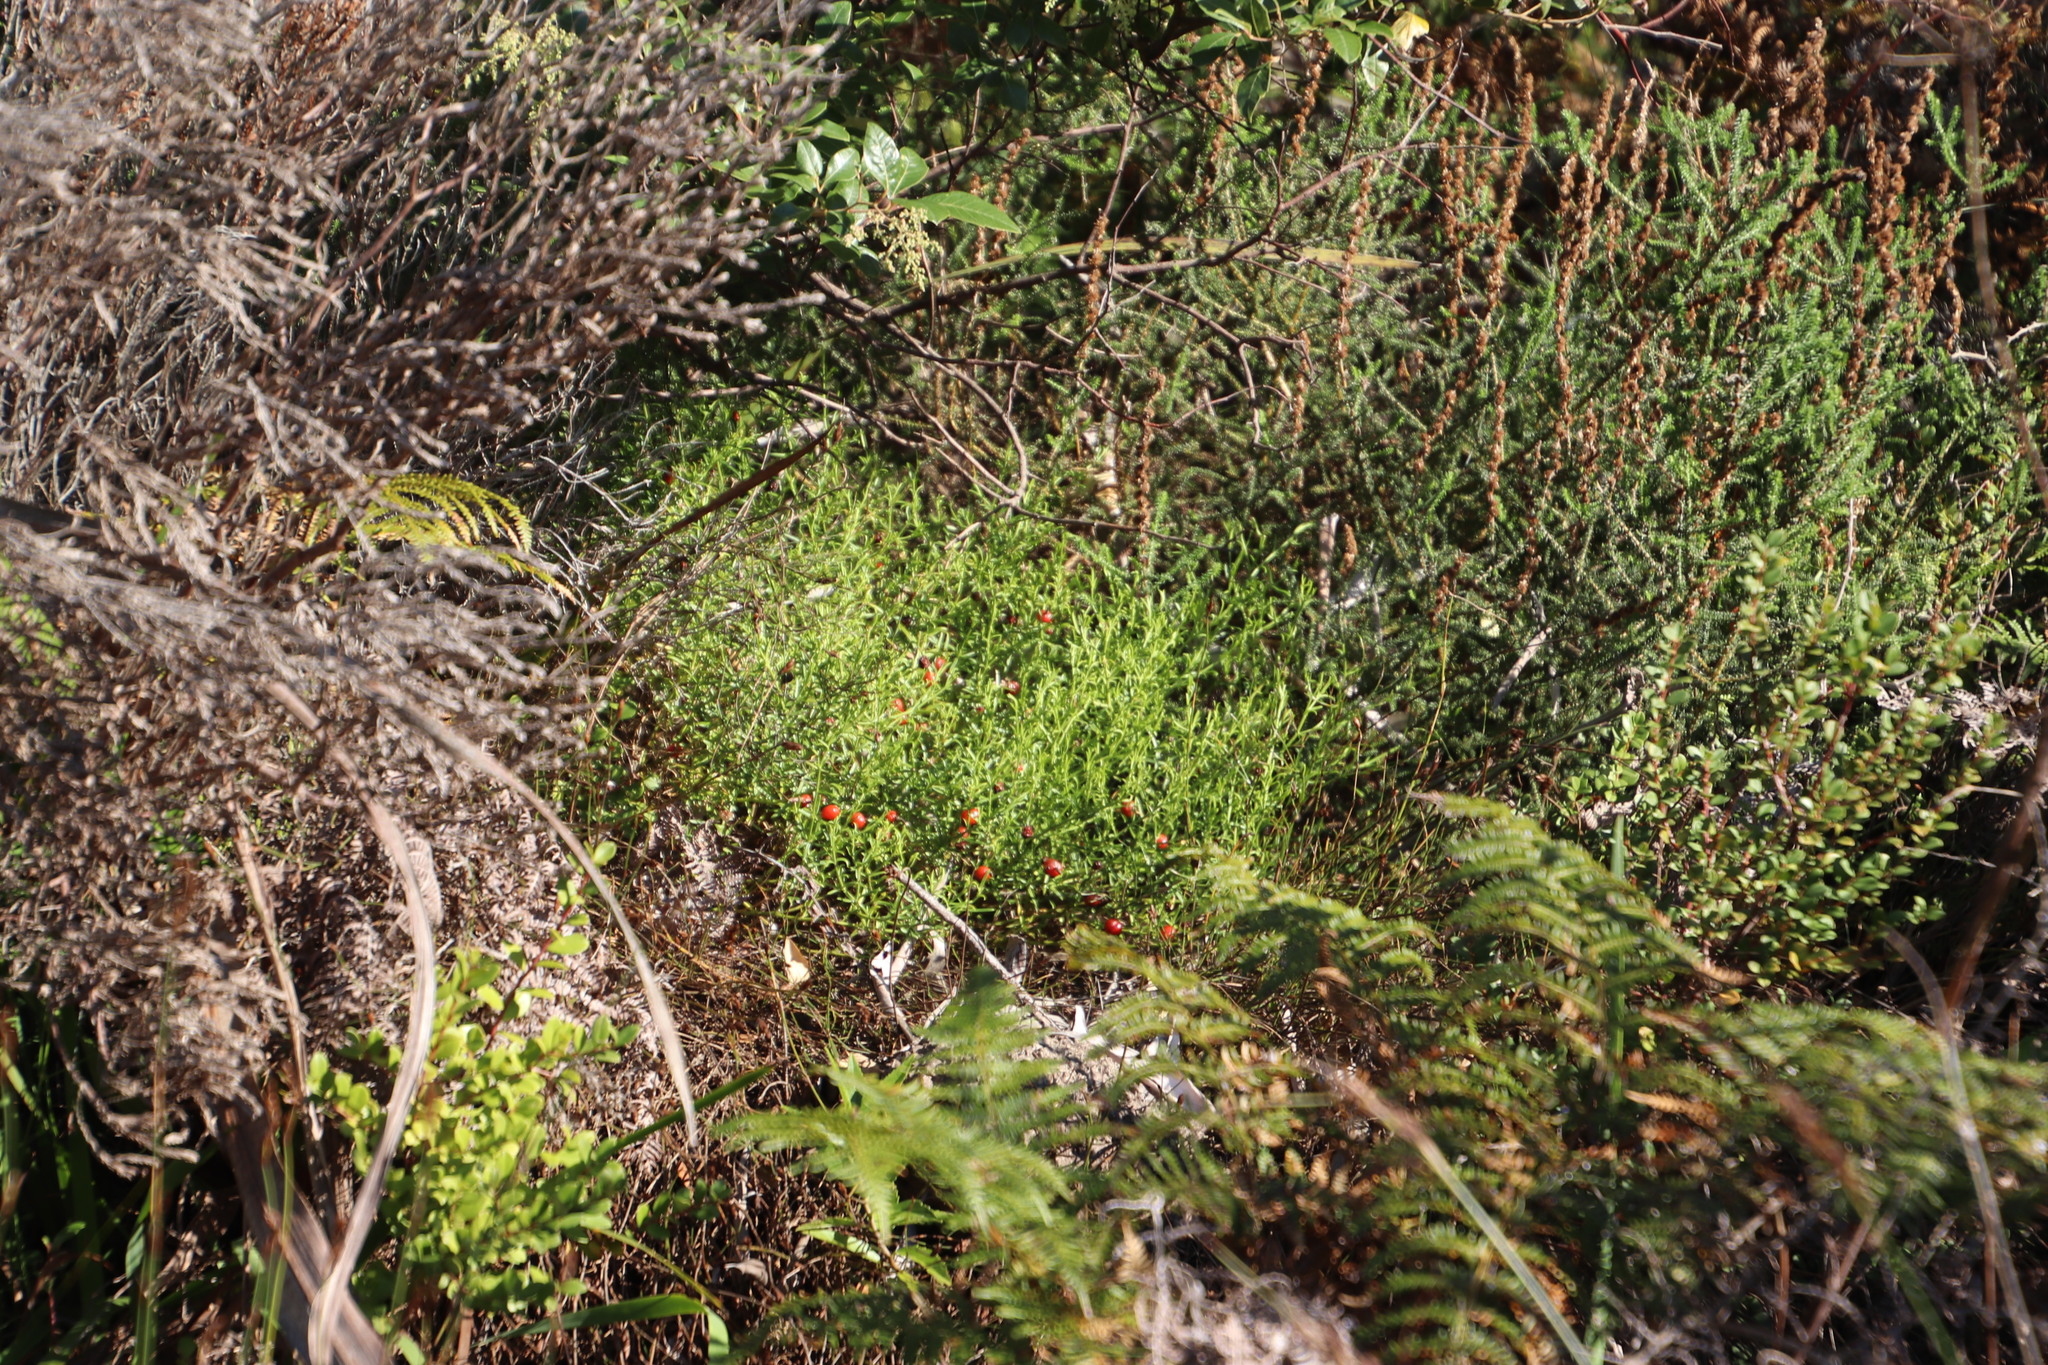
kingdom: Plantae
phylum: Tracheophyta
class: Magnoliopsida
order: Gentianales
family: Gentianaceae
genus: Chironia
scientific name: Chironia baccifera
